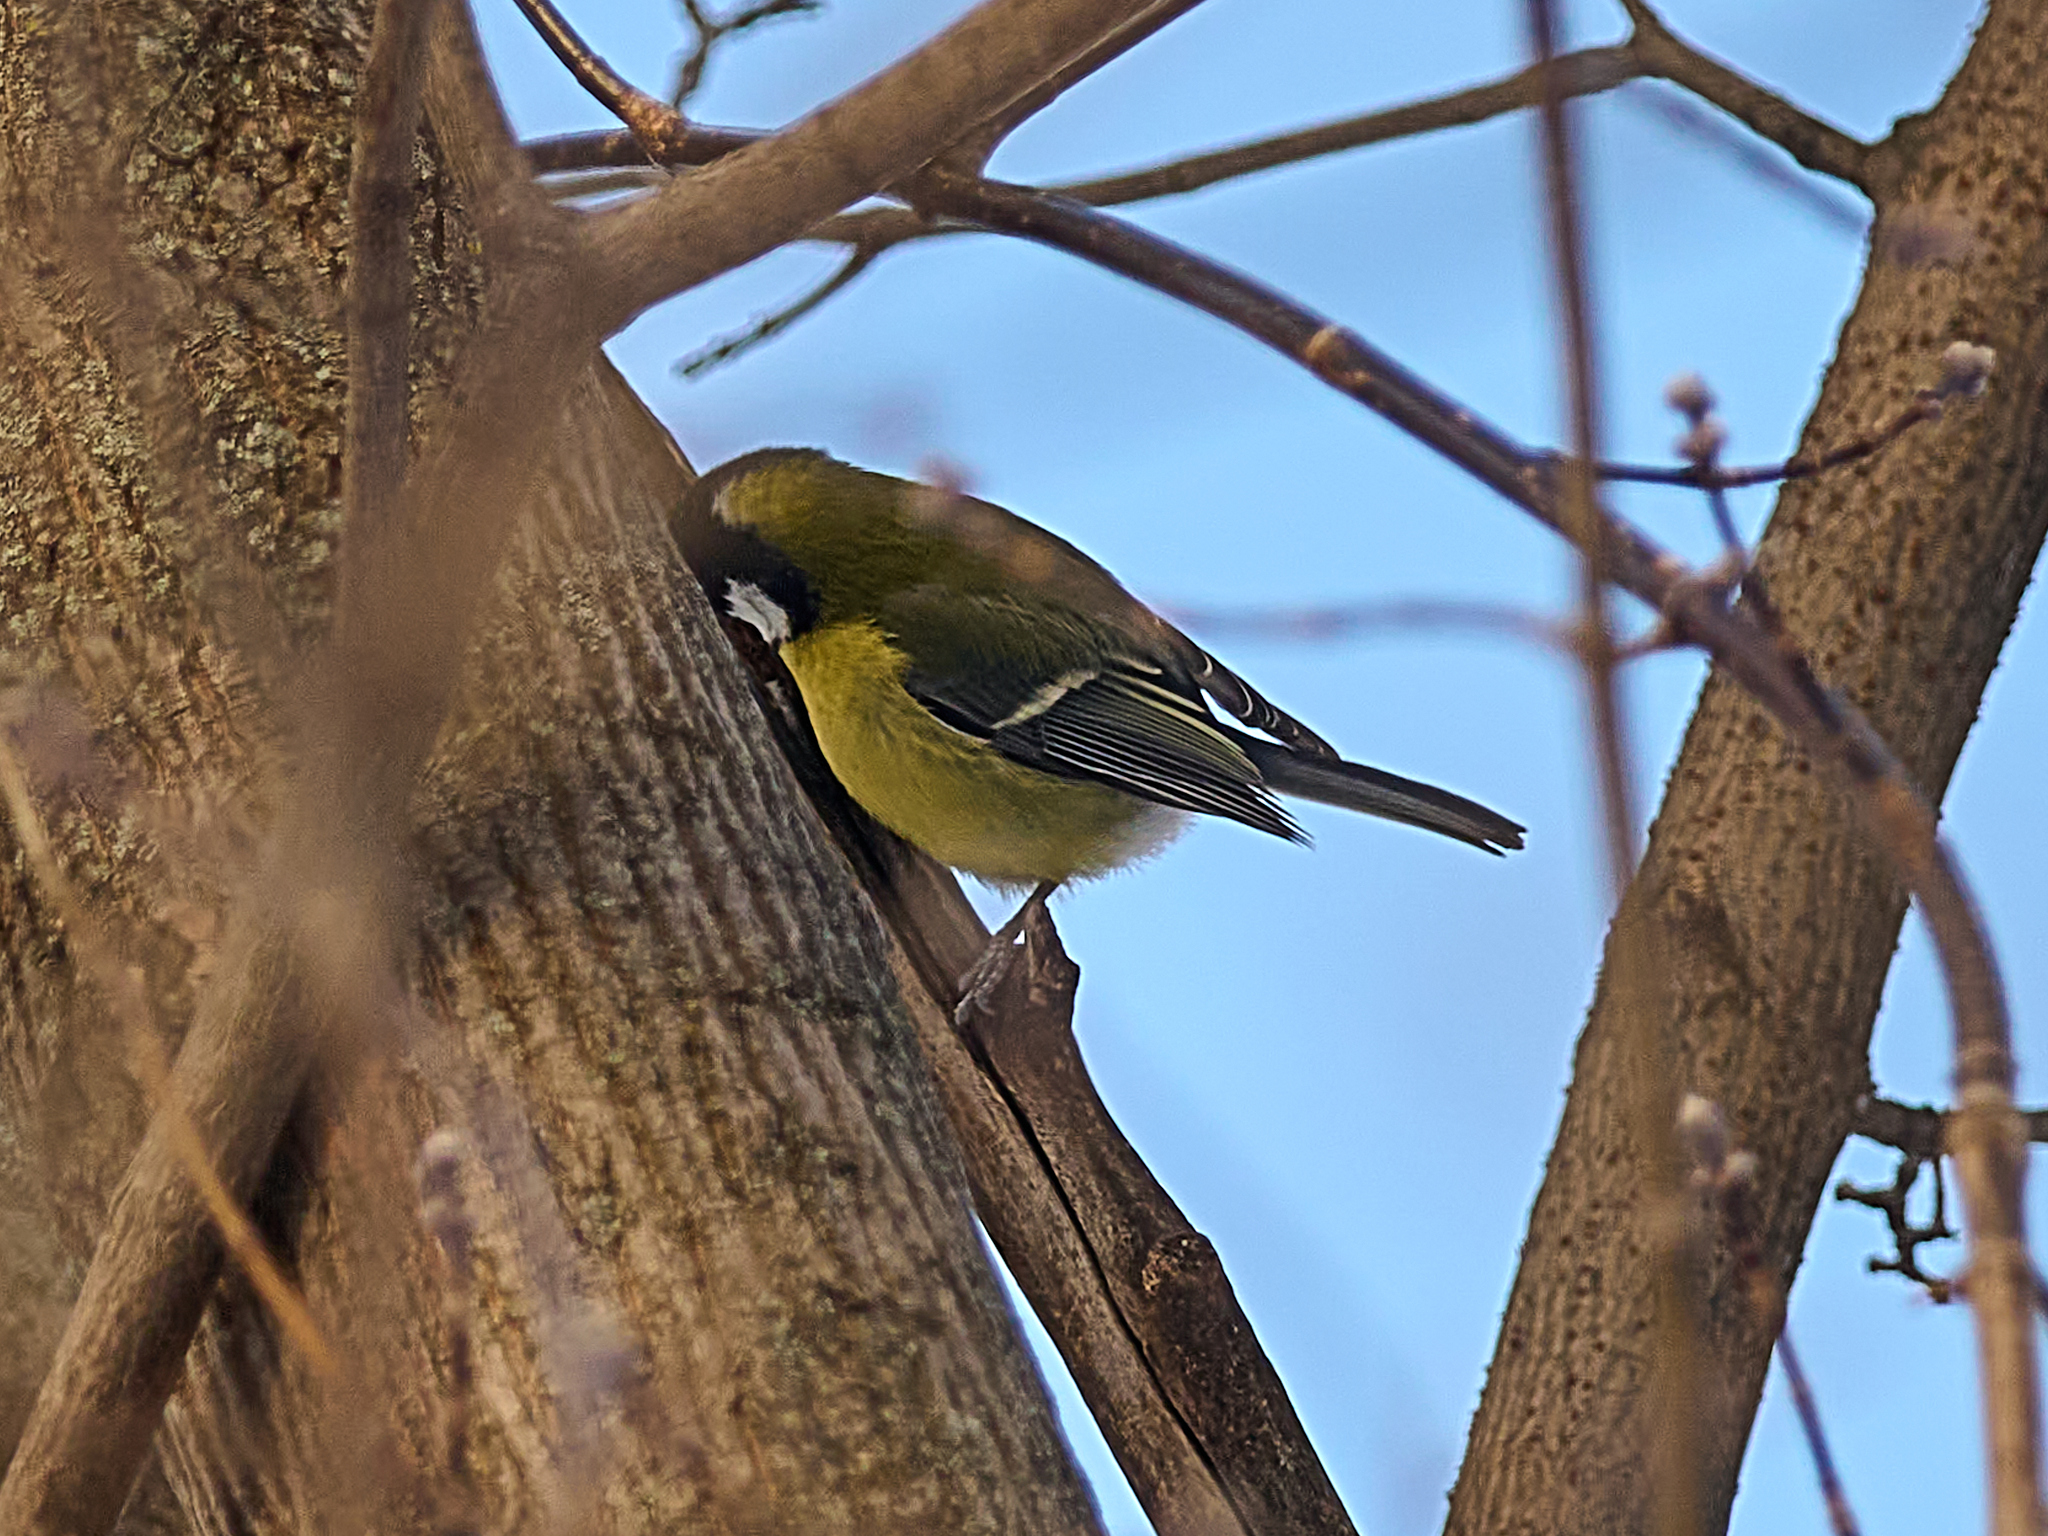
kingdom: Animalia
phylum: Chordata
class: Aves
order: Passeriformes
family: Paridae
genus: Parus
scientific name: Parus major
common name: Great tit
